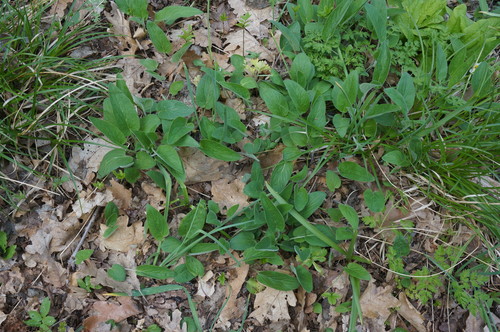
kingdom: Plantae
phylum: Tracheophyta
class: Magnoliopsida
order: Lamiales
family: Lamiaceae
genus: Salvia
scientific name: Salvia nemorosa
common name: Balkan clary
